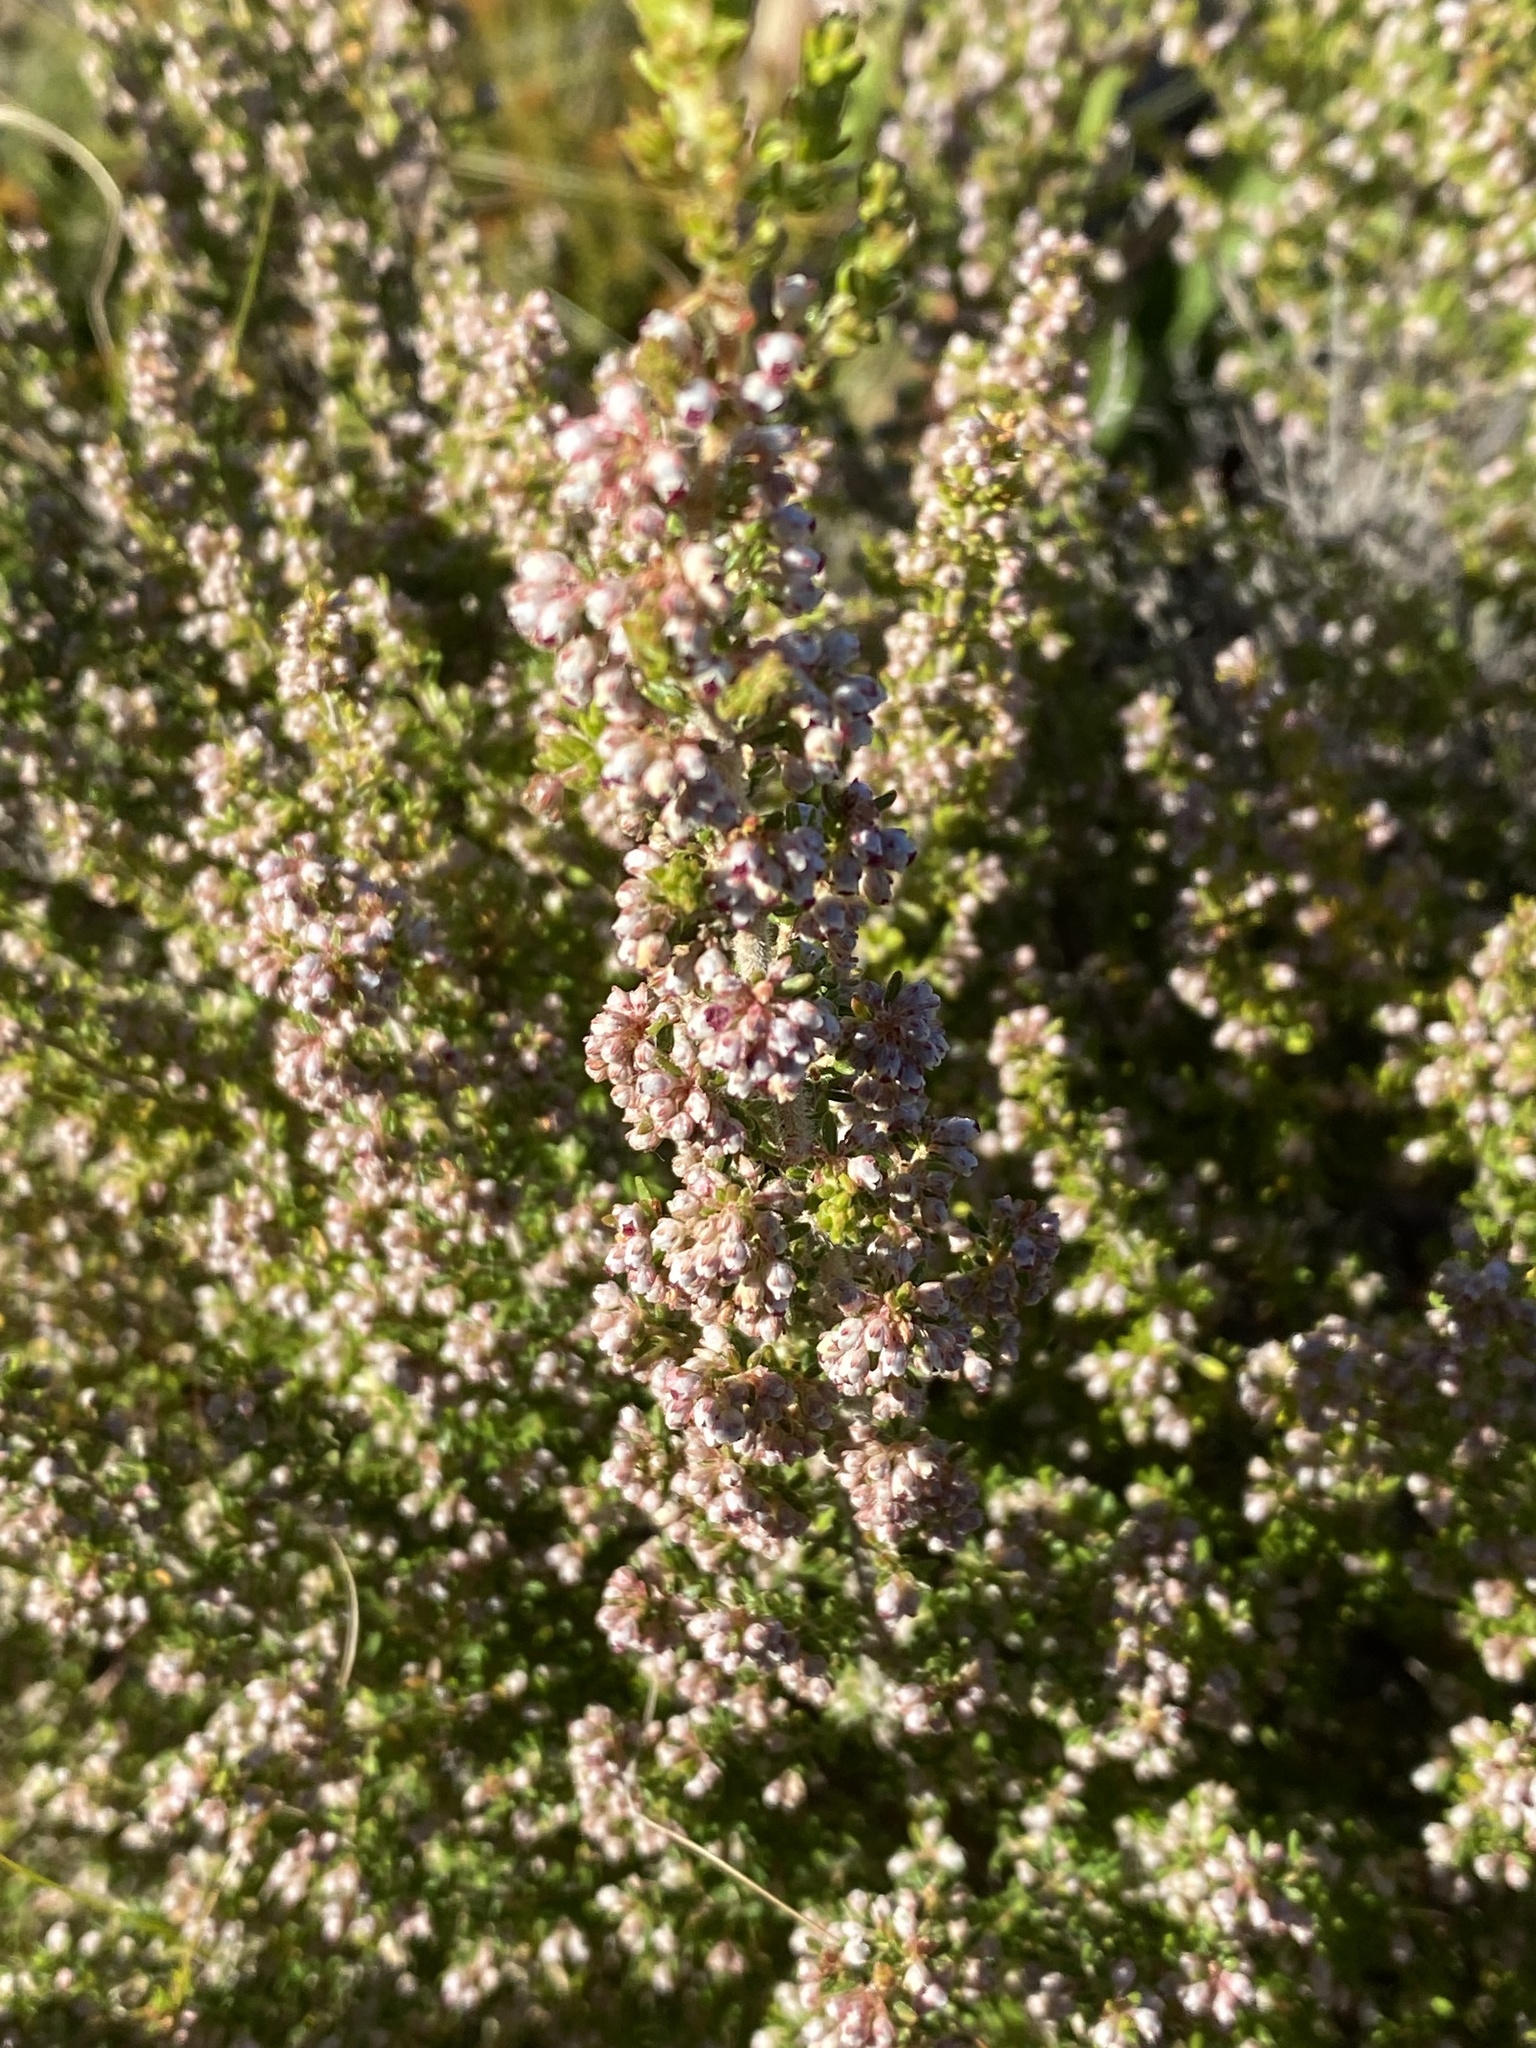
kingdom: Plantae
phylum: Tracheophyta
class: Magnoliopsida
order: Ericales
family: Ericaceae
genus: Erica
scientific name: Erica hispidula
